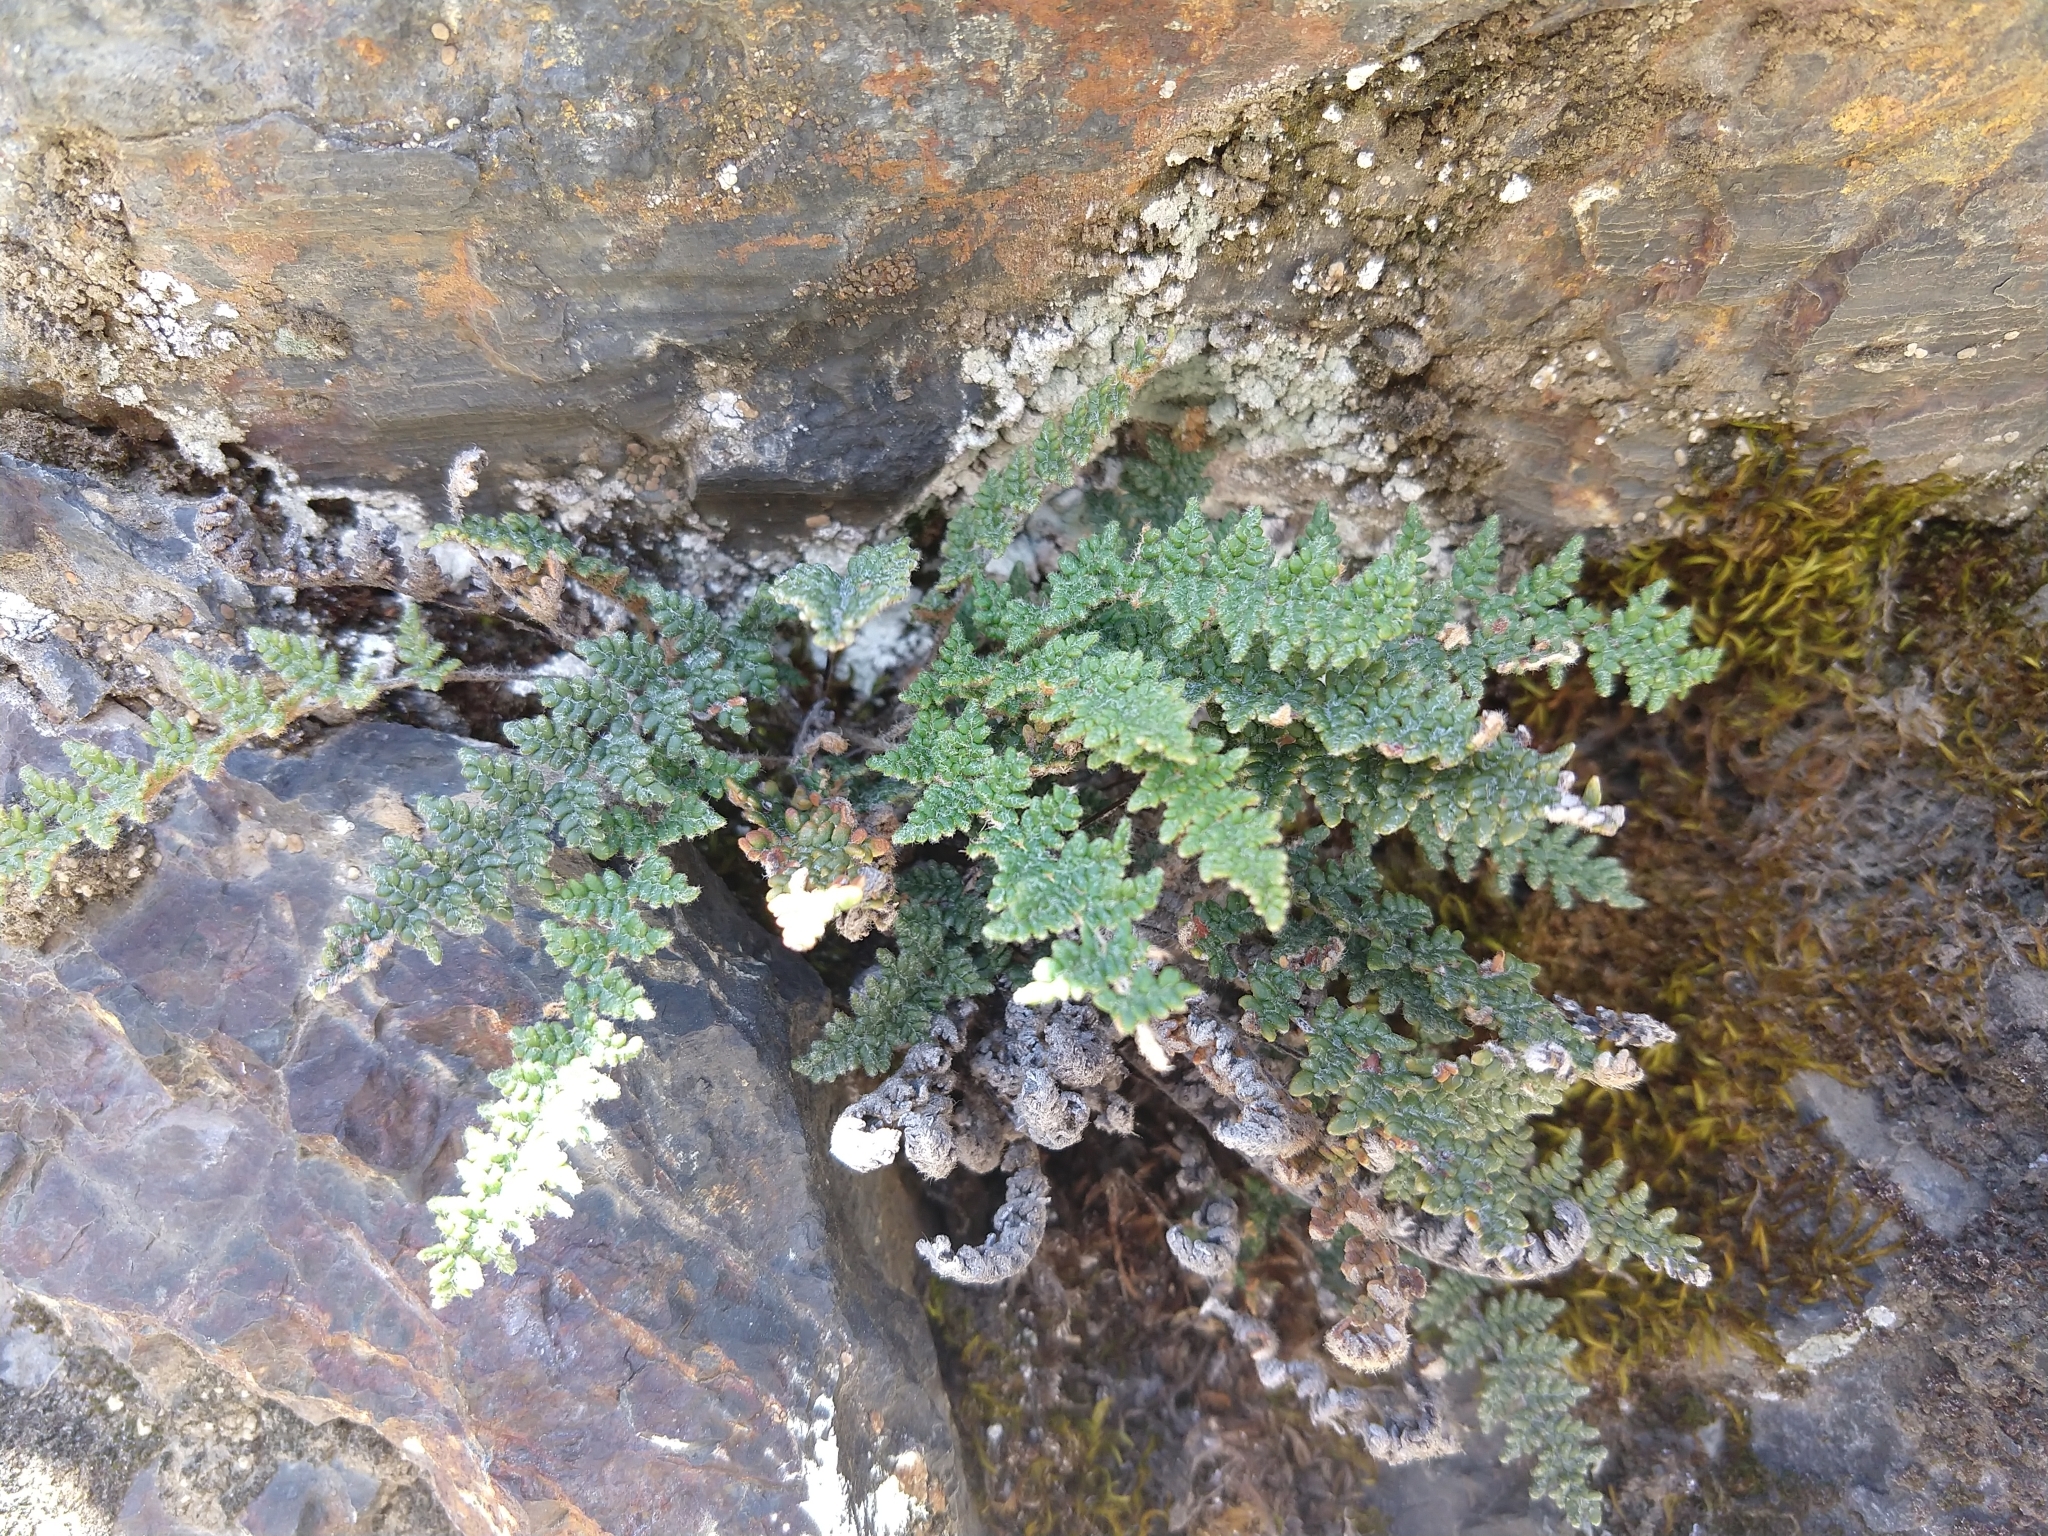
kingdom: Plantae
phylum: Tracheophyta
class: Polypodiopsida
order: Polypodiales
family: Pteridaceae
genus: Myriopteris
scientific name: Myriopteris gracillima
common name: Lace fern
